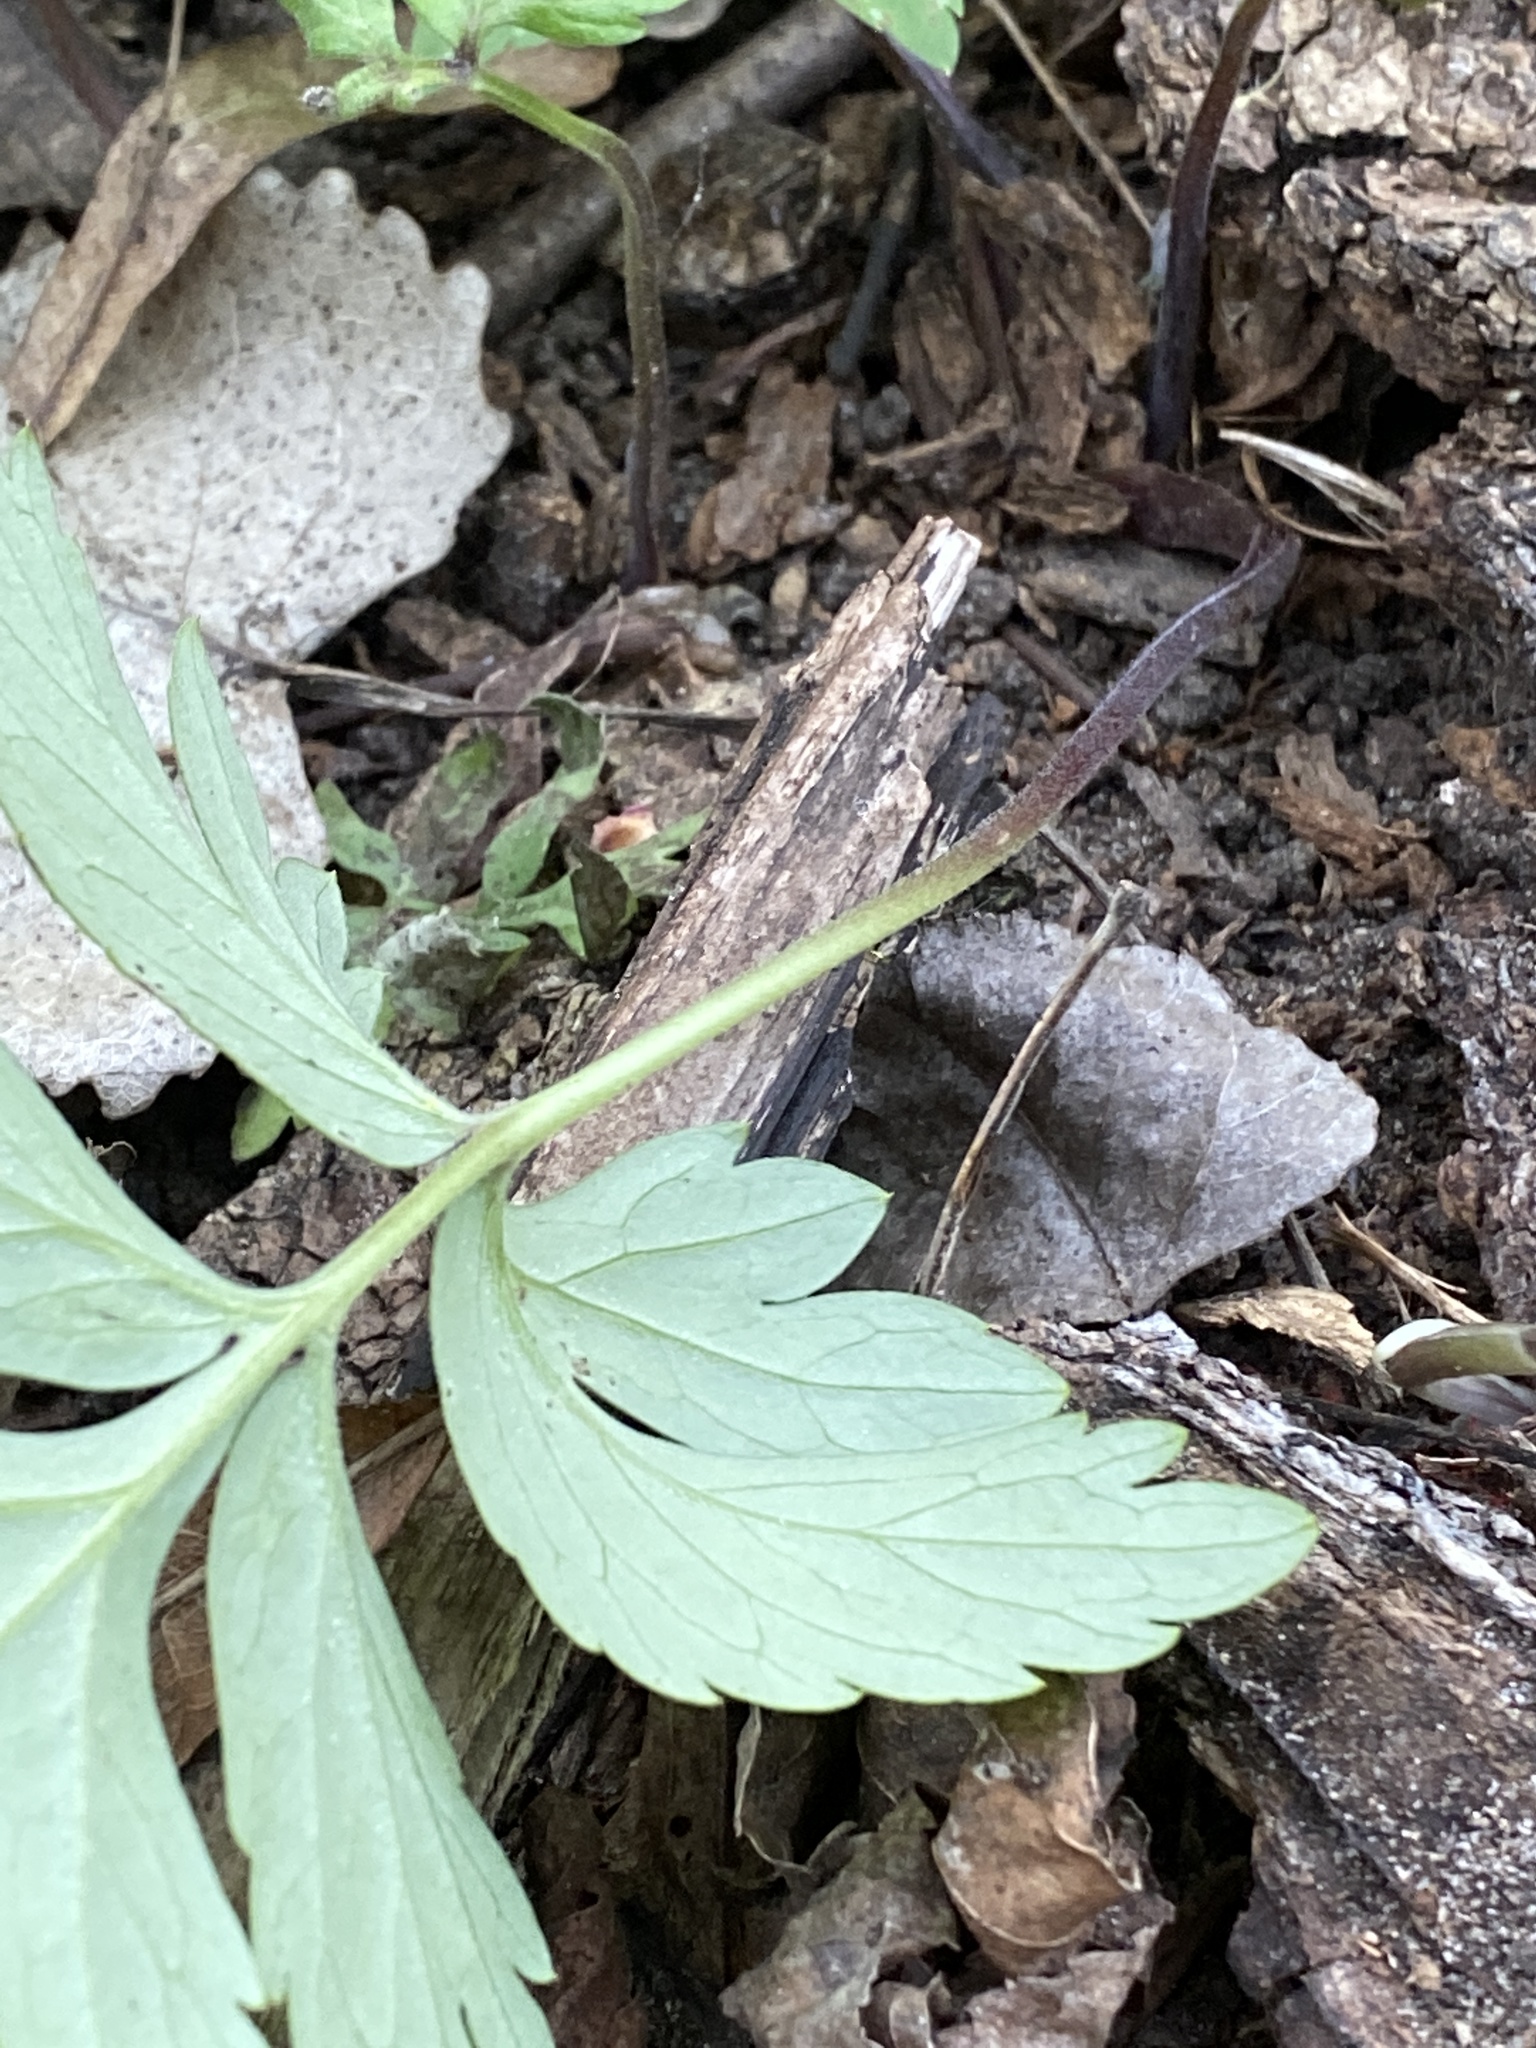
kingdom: Plantae
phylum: Tracheophyta
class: Magnoliopsida
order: Boraginales
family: Hydrophyllaceae
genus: Hydrophyllum
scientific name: Hydrophyllum virginianum
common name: Virginia waterleaf
